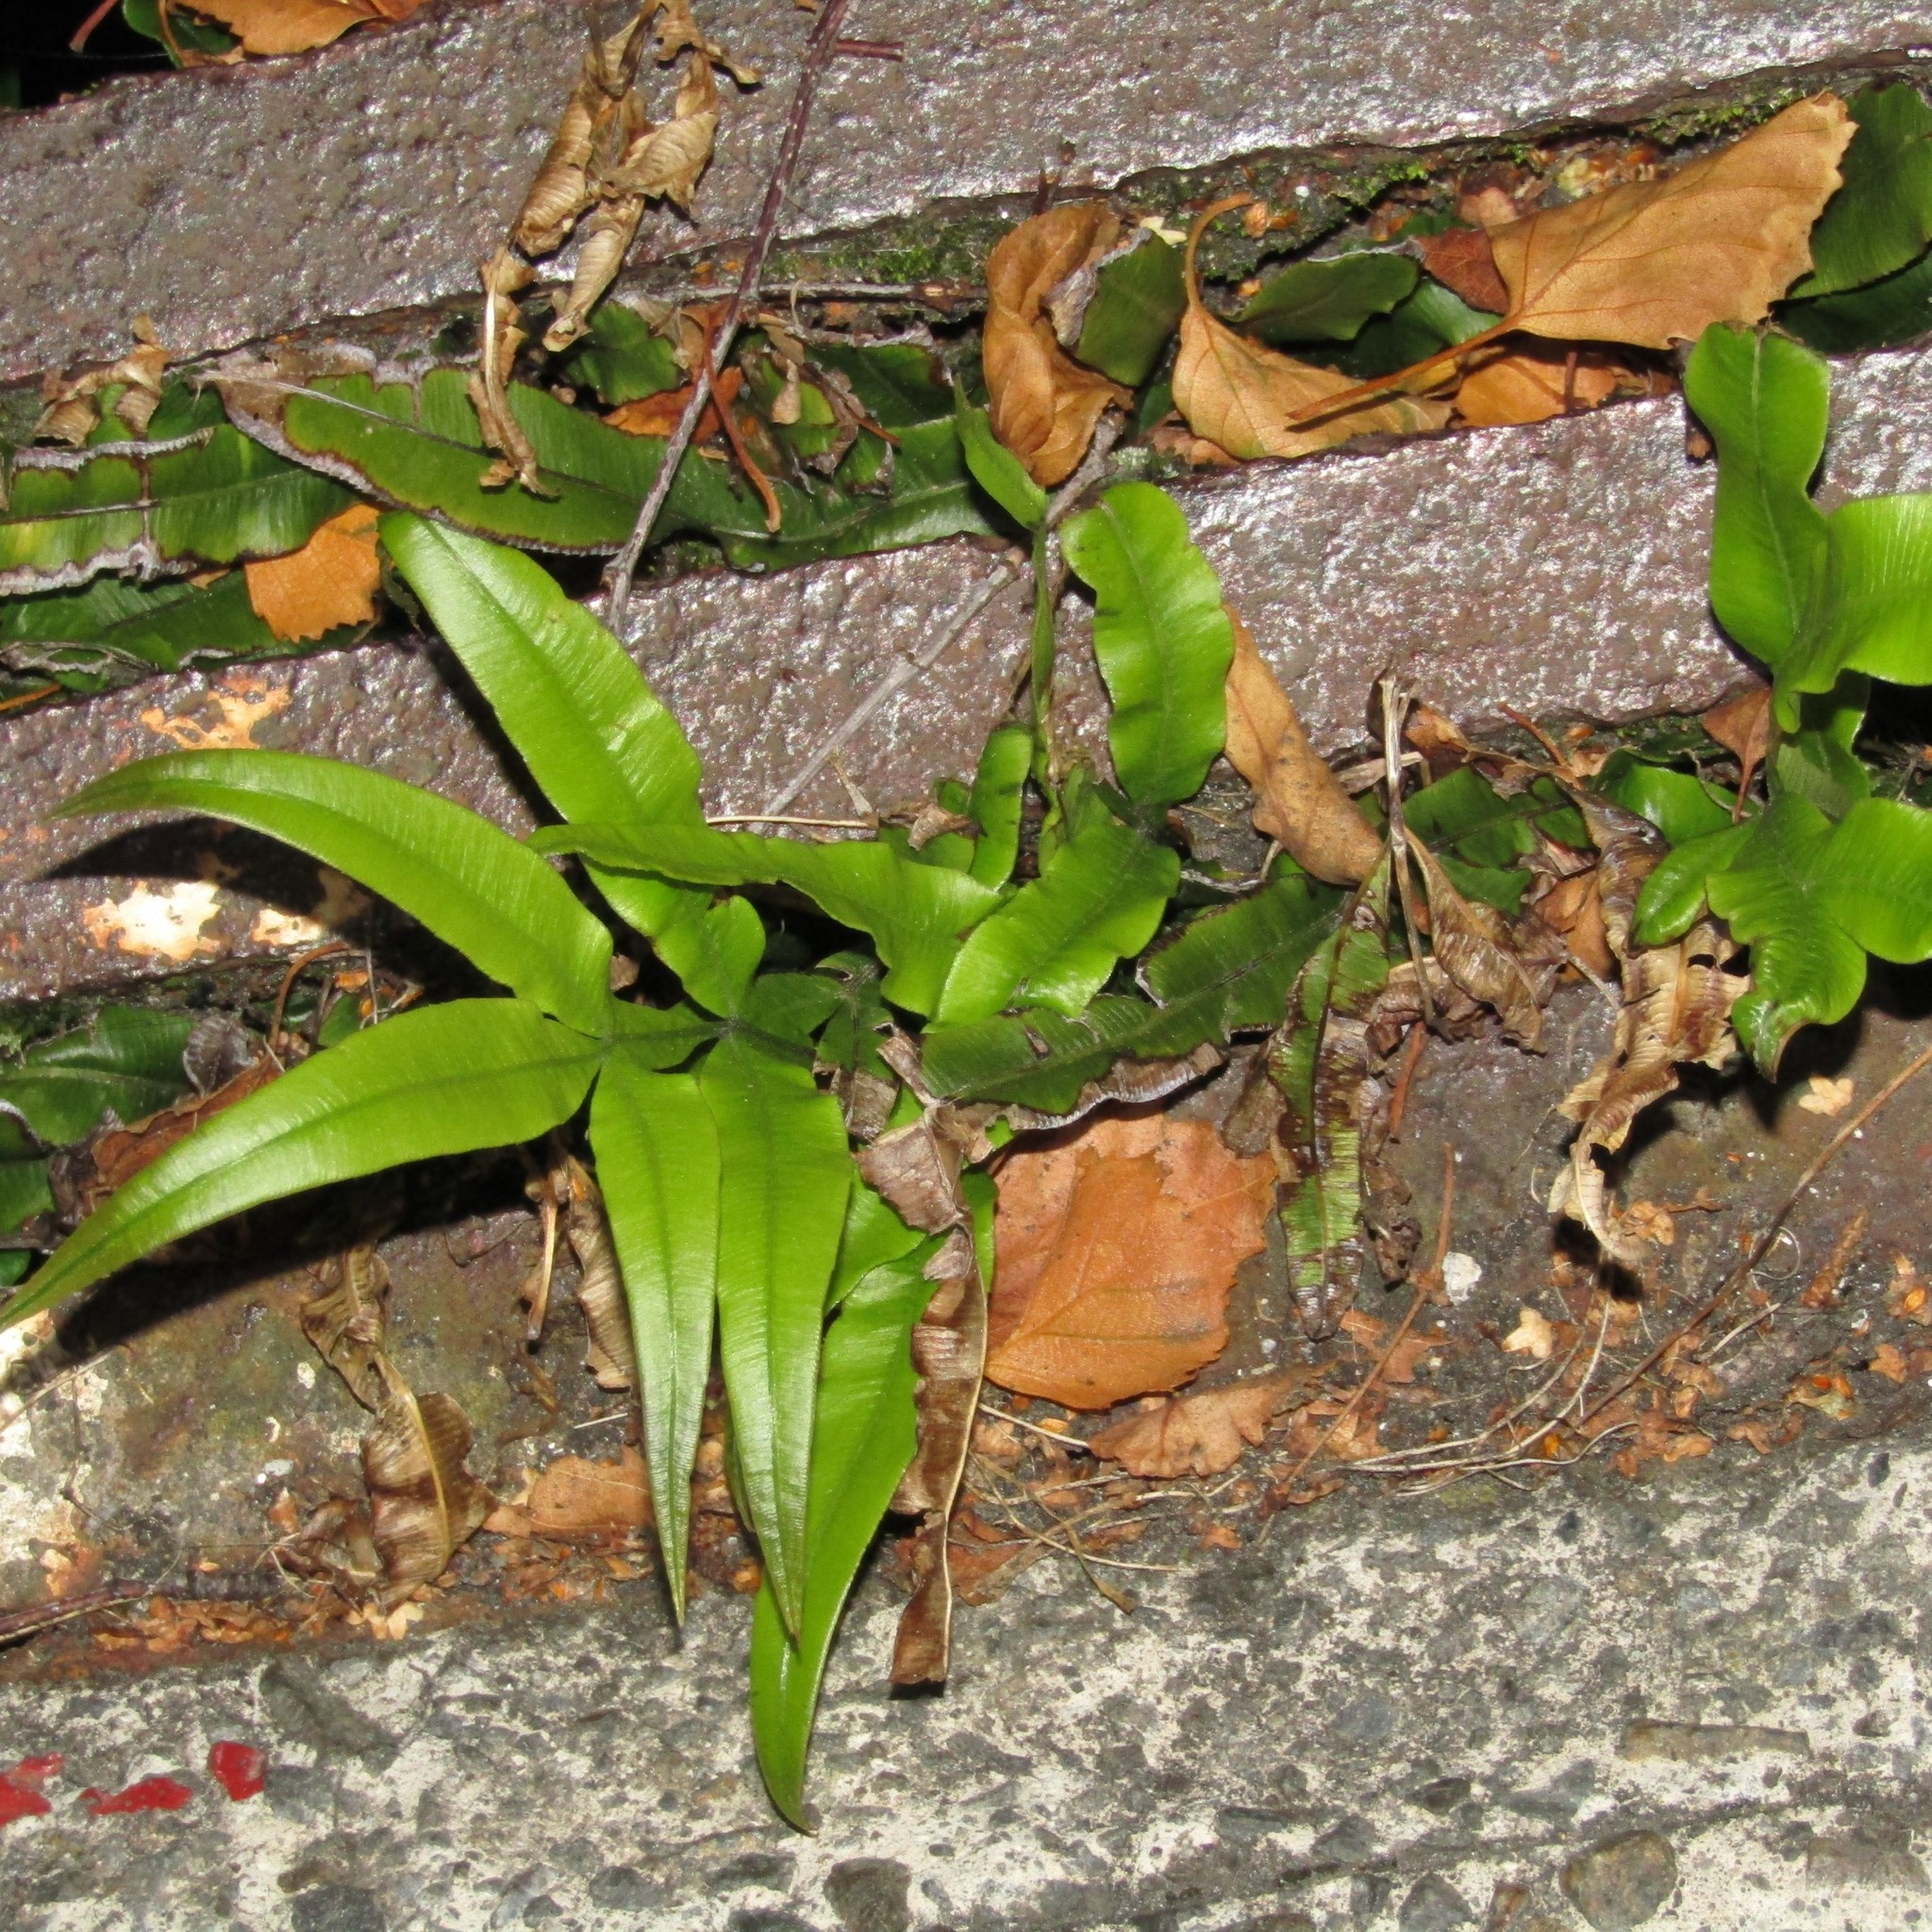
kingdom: Plantae
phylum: Tracheophyta
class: Polypodiopsida
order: Polypodiales
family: Pteridaceae
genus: Pteris
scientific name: Pteris cretica
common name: Ribbon fern
